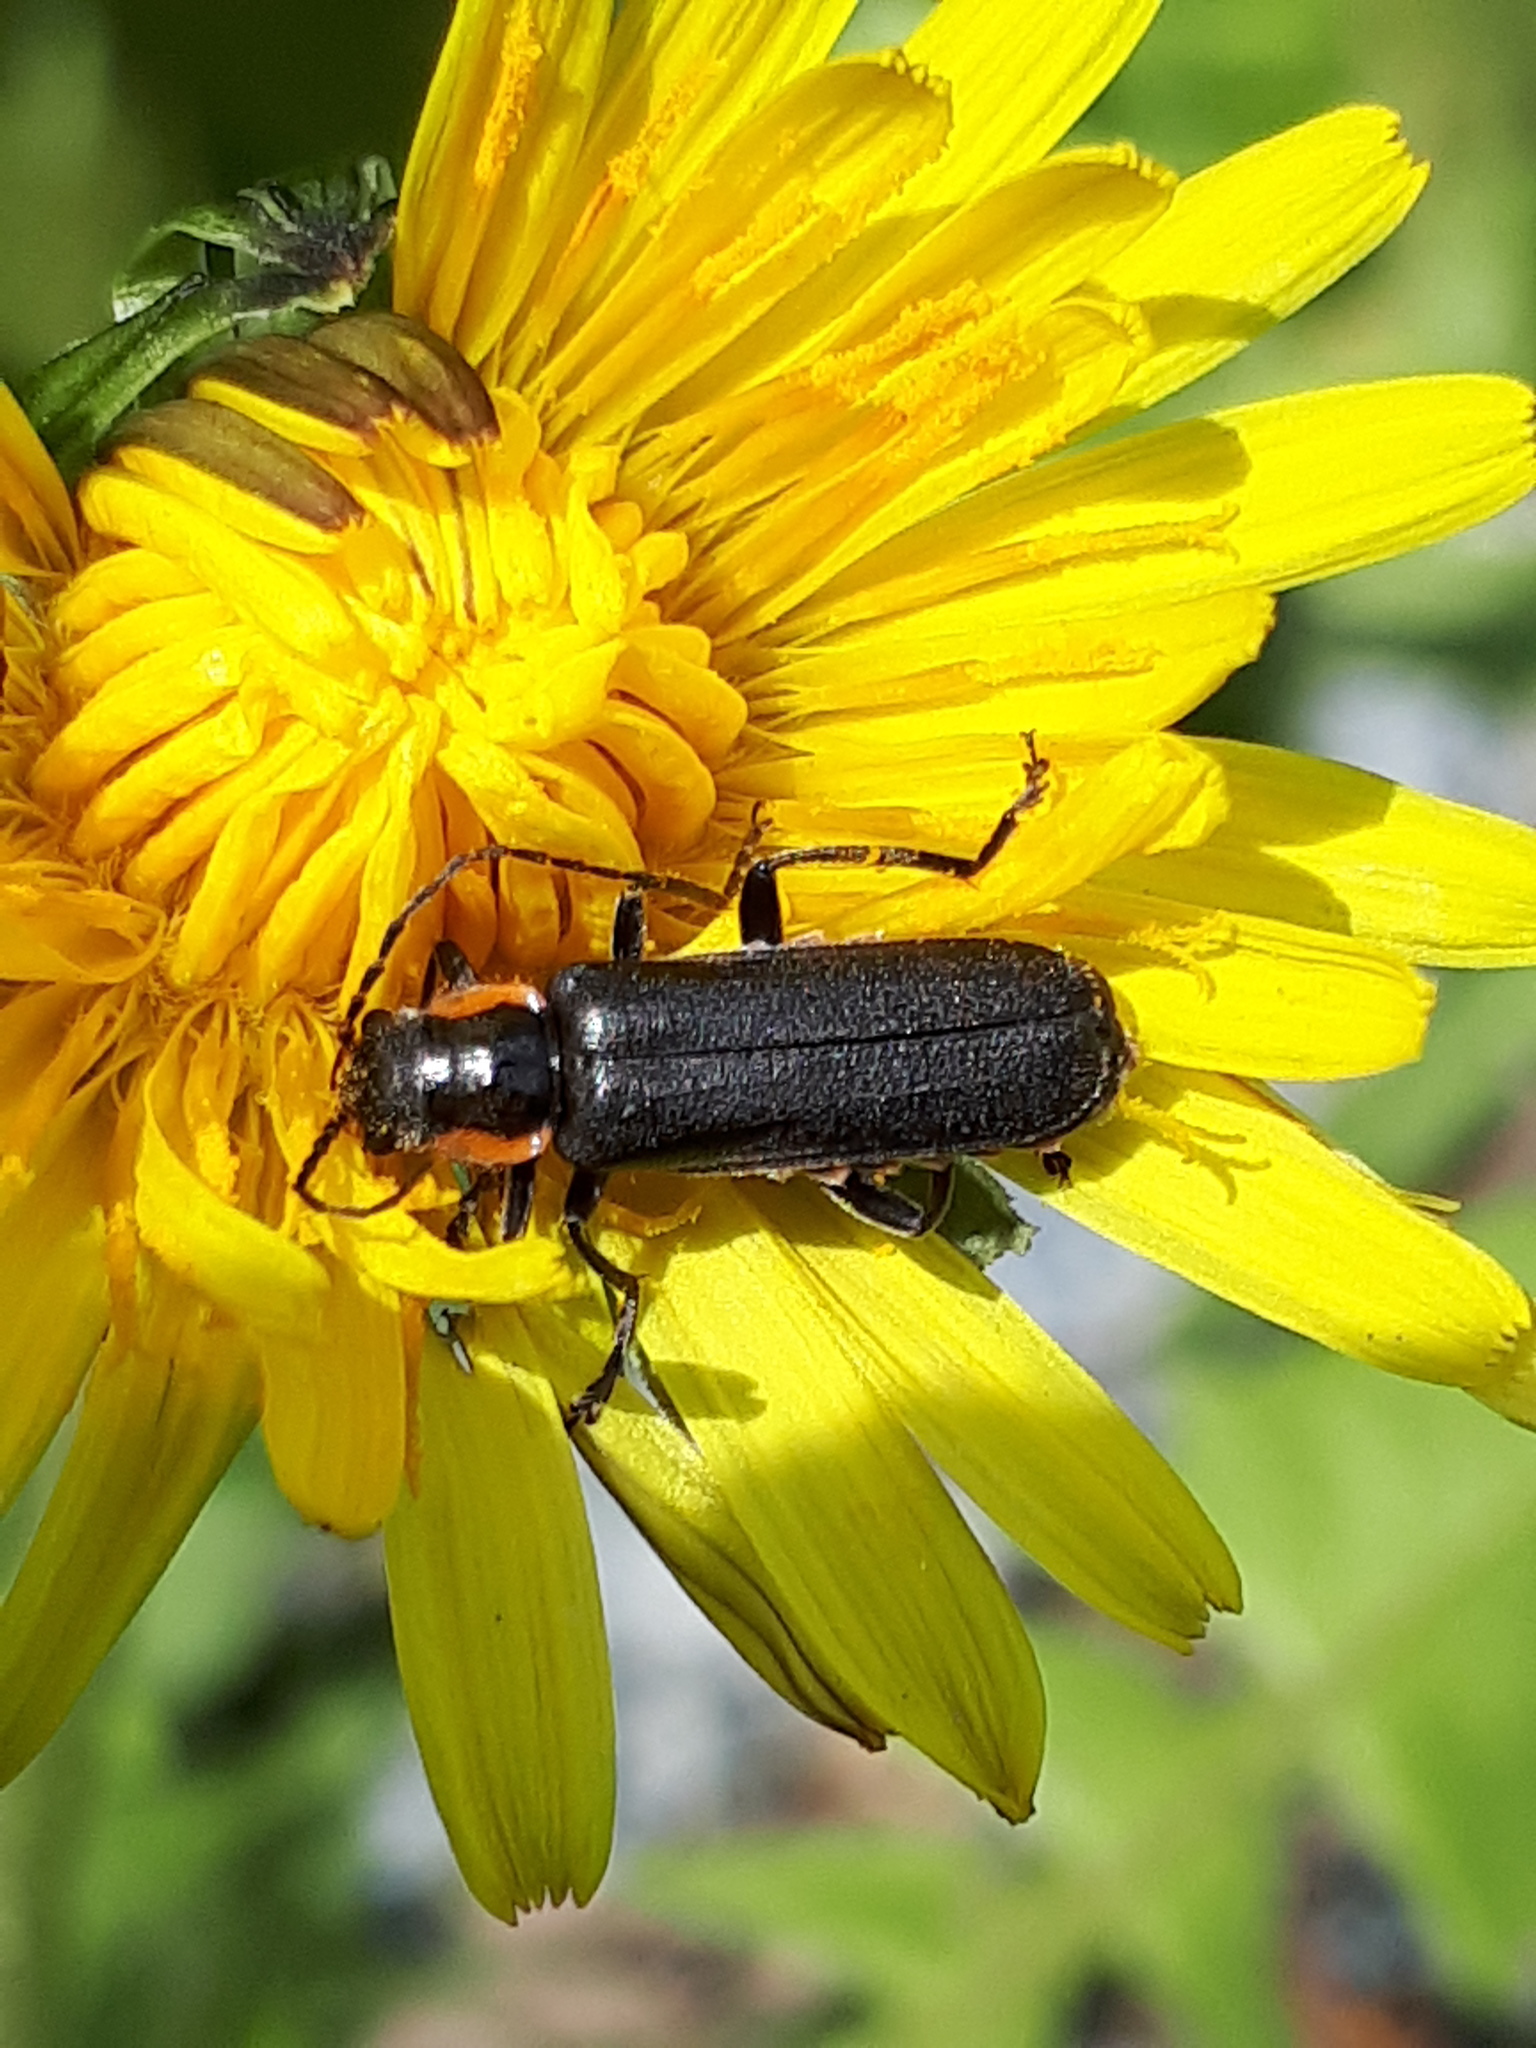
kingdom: Animalia
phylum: Arthropoda
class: Insecta
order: Coleoptera
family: Cantharidae
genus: Cantharis
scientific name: Cantharis obscura
